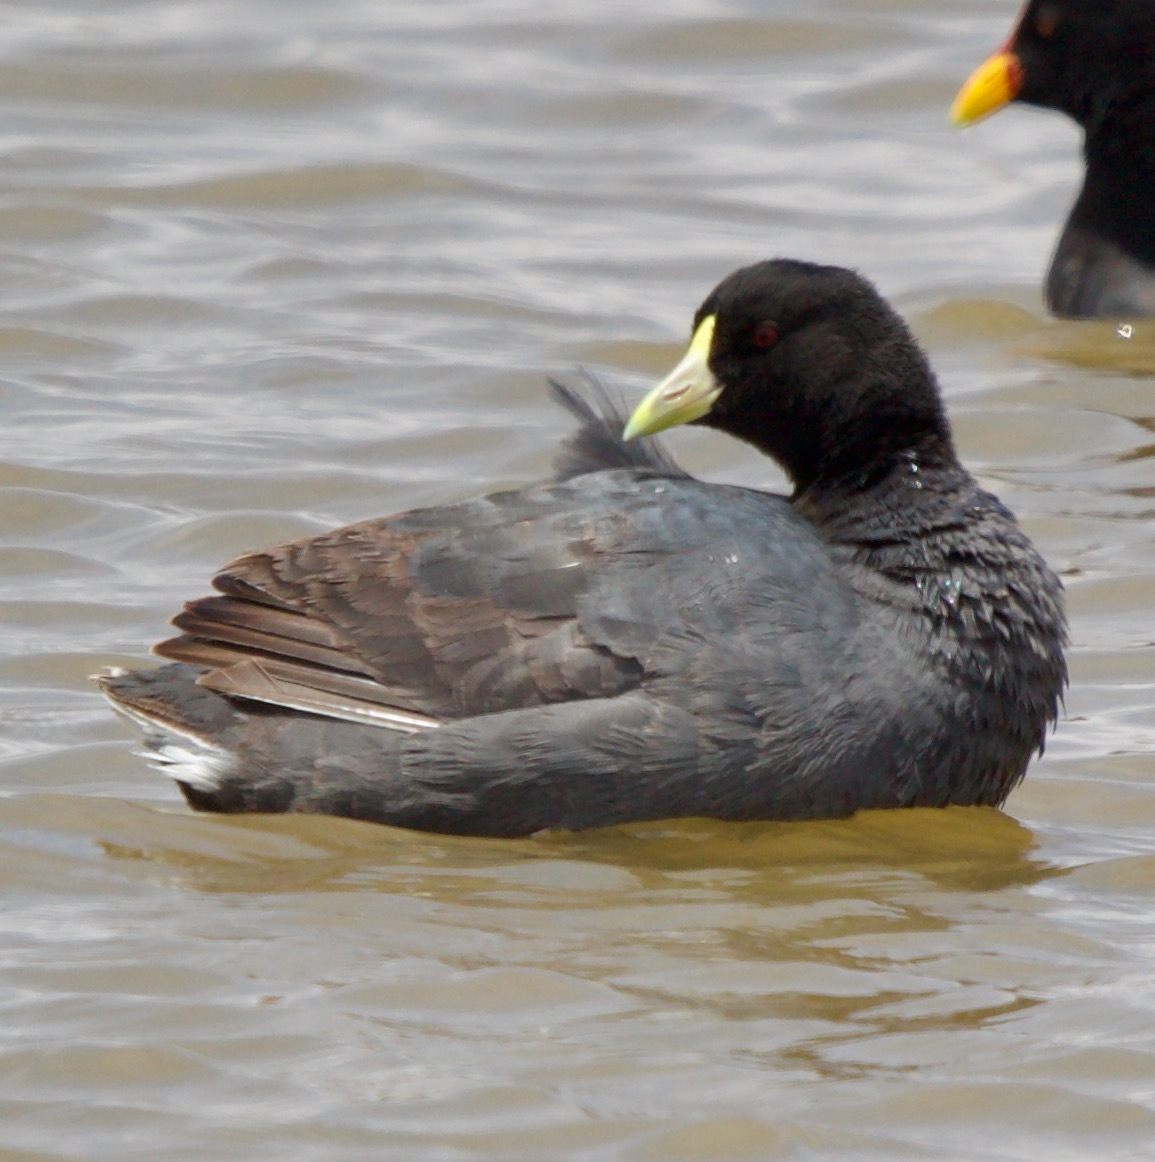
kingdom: Animalia
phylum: Chordata
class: Aves
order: Gruiformes
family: Rallidae
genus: Fulica
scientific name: Fulica leucoptera
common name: White-winged coot
